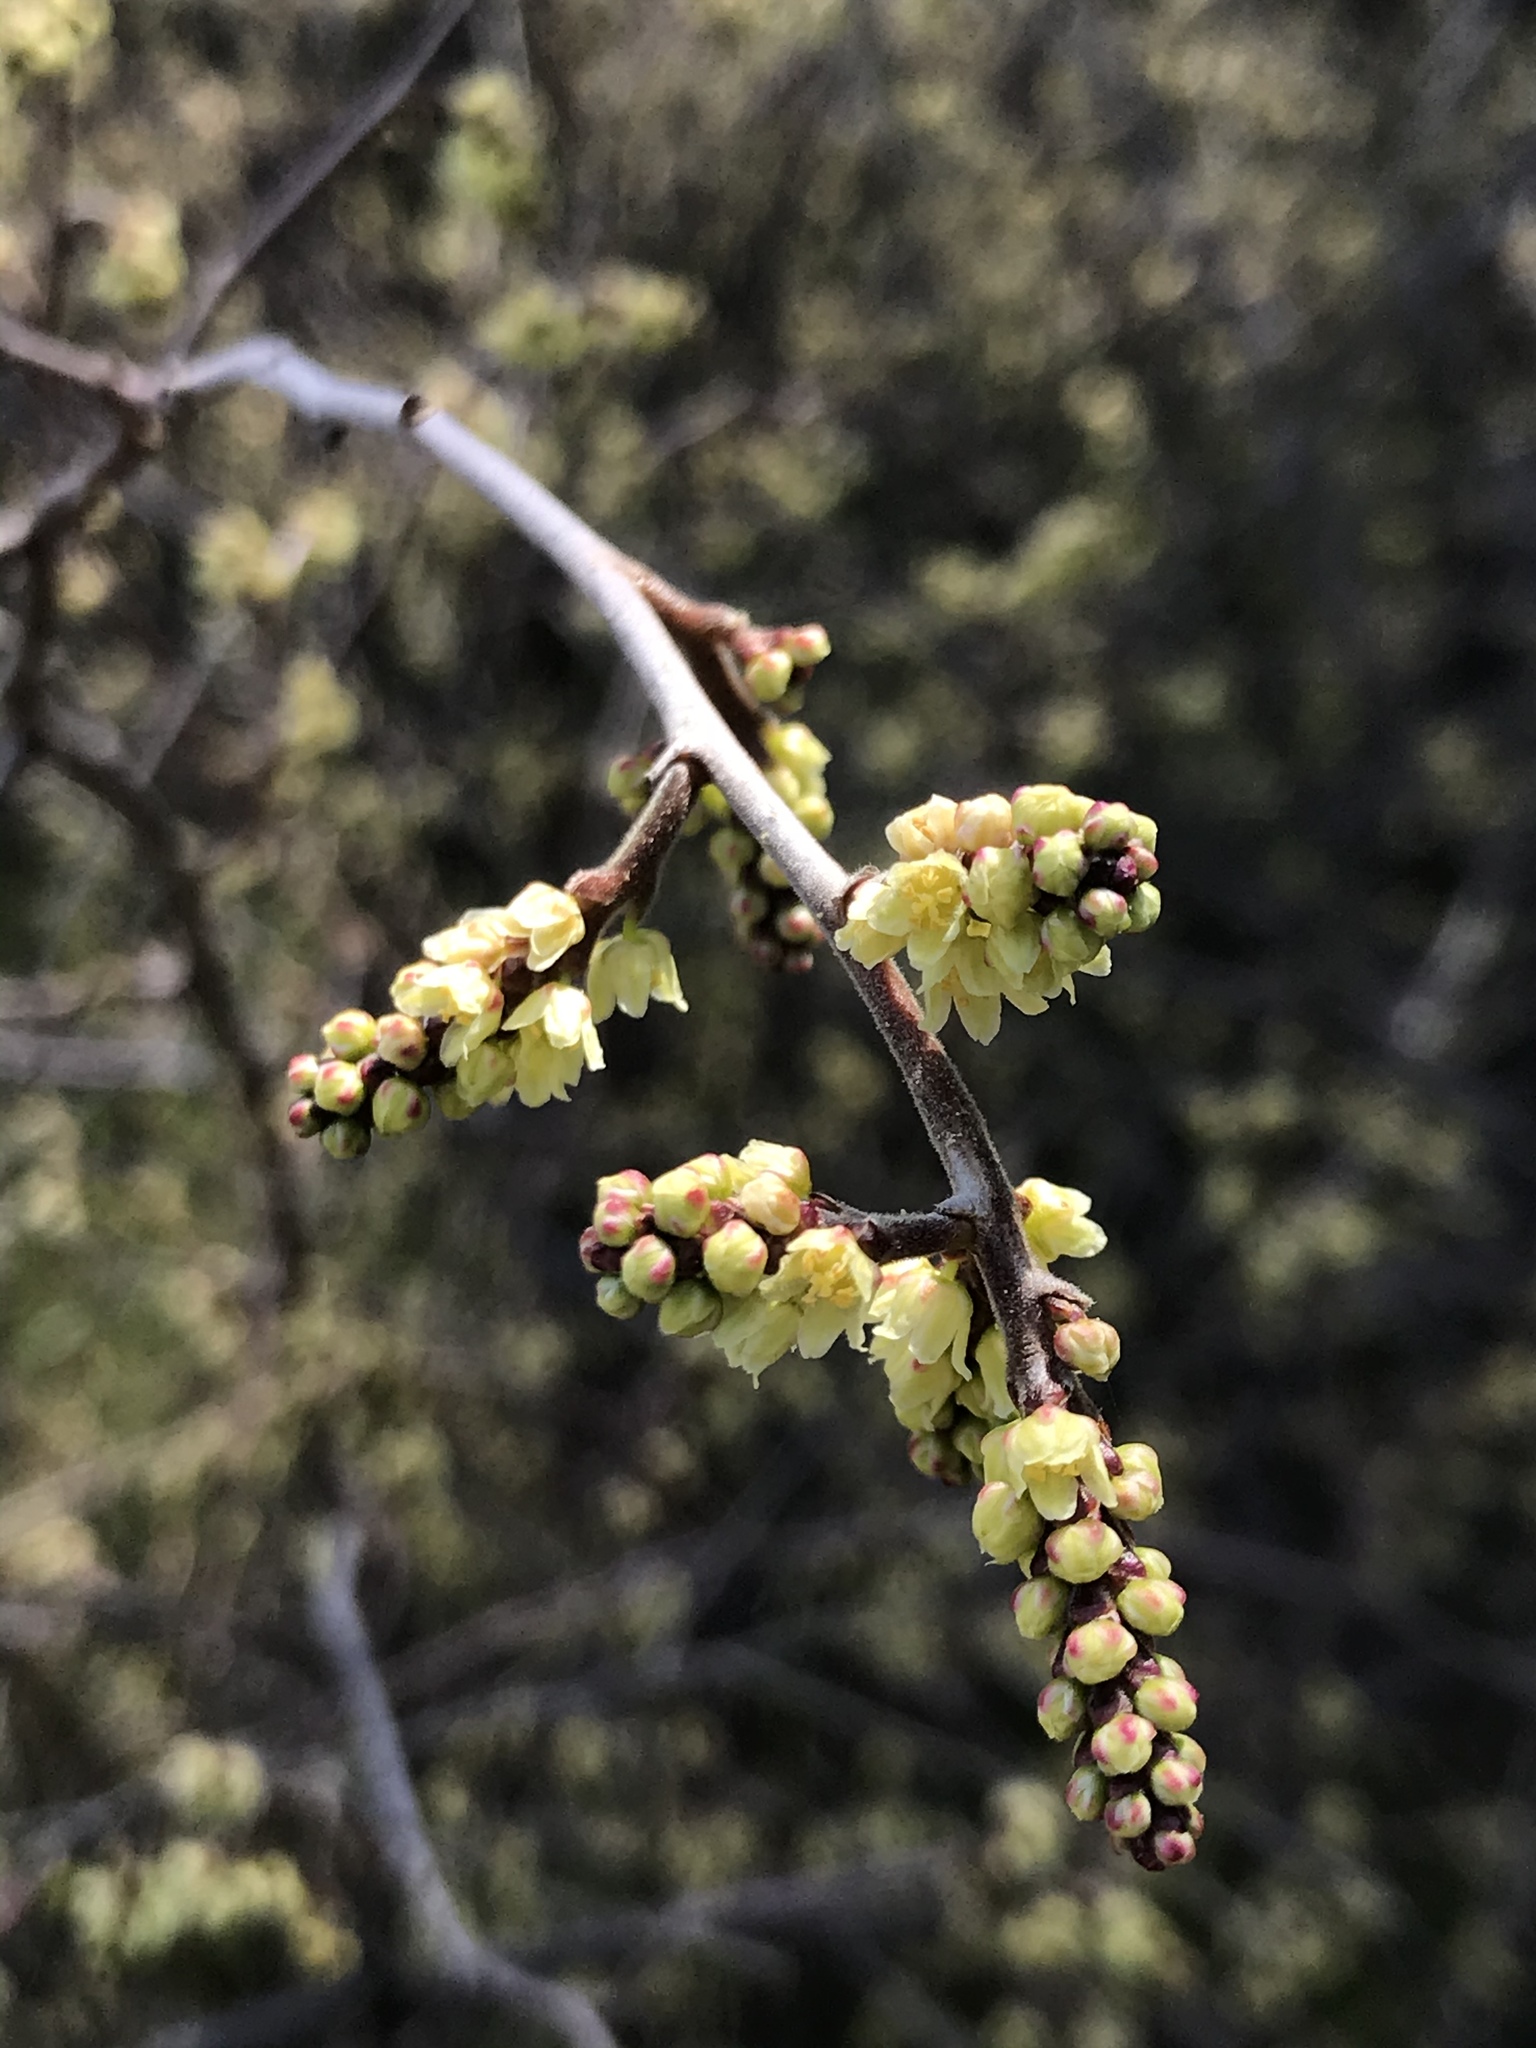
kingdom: Plantae
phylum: Tracheophyta
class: Magnoliopsida
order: Sapindales
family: Anacardiaceae
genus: Rhus
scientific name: Rhus aromatica
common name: Aromatic sumac
